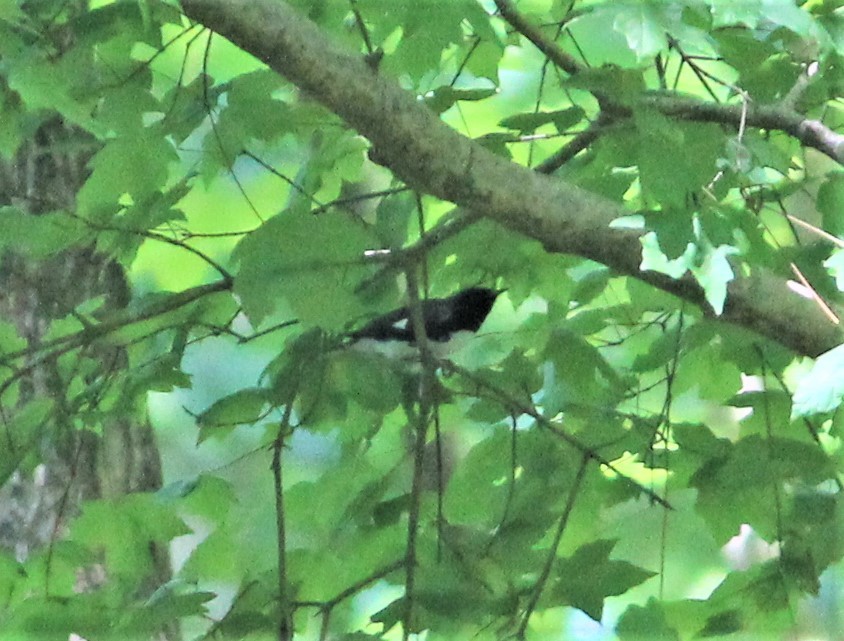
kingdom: Animalia
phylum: Chordata
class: Aves
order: Passeriformes
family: Parulidae
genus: Setophaga
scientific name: Setophaga caerulescens
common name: Black-throated blue warbler
